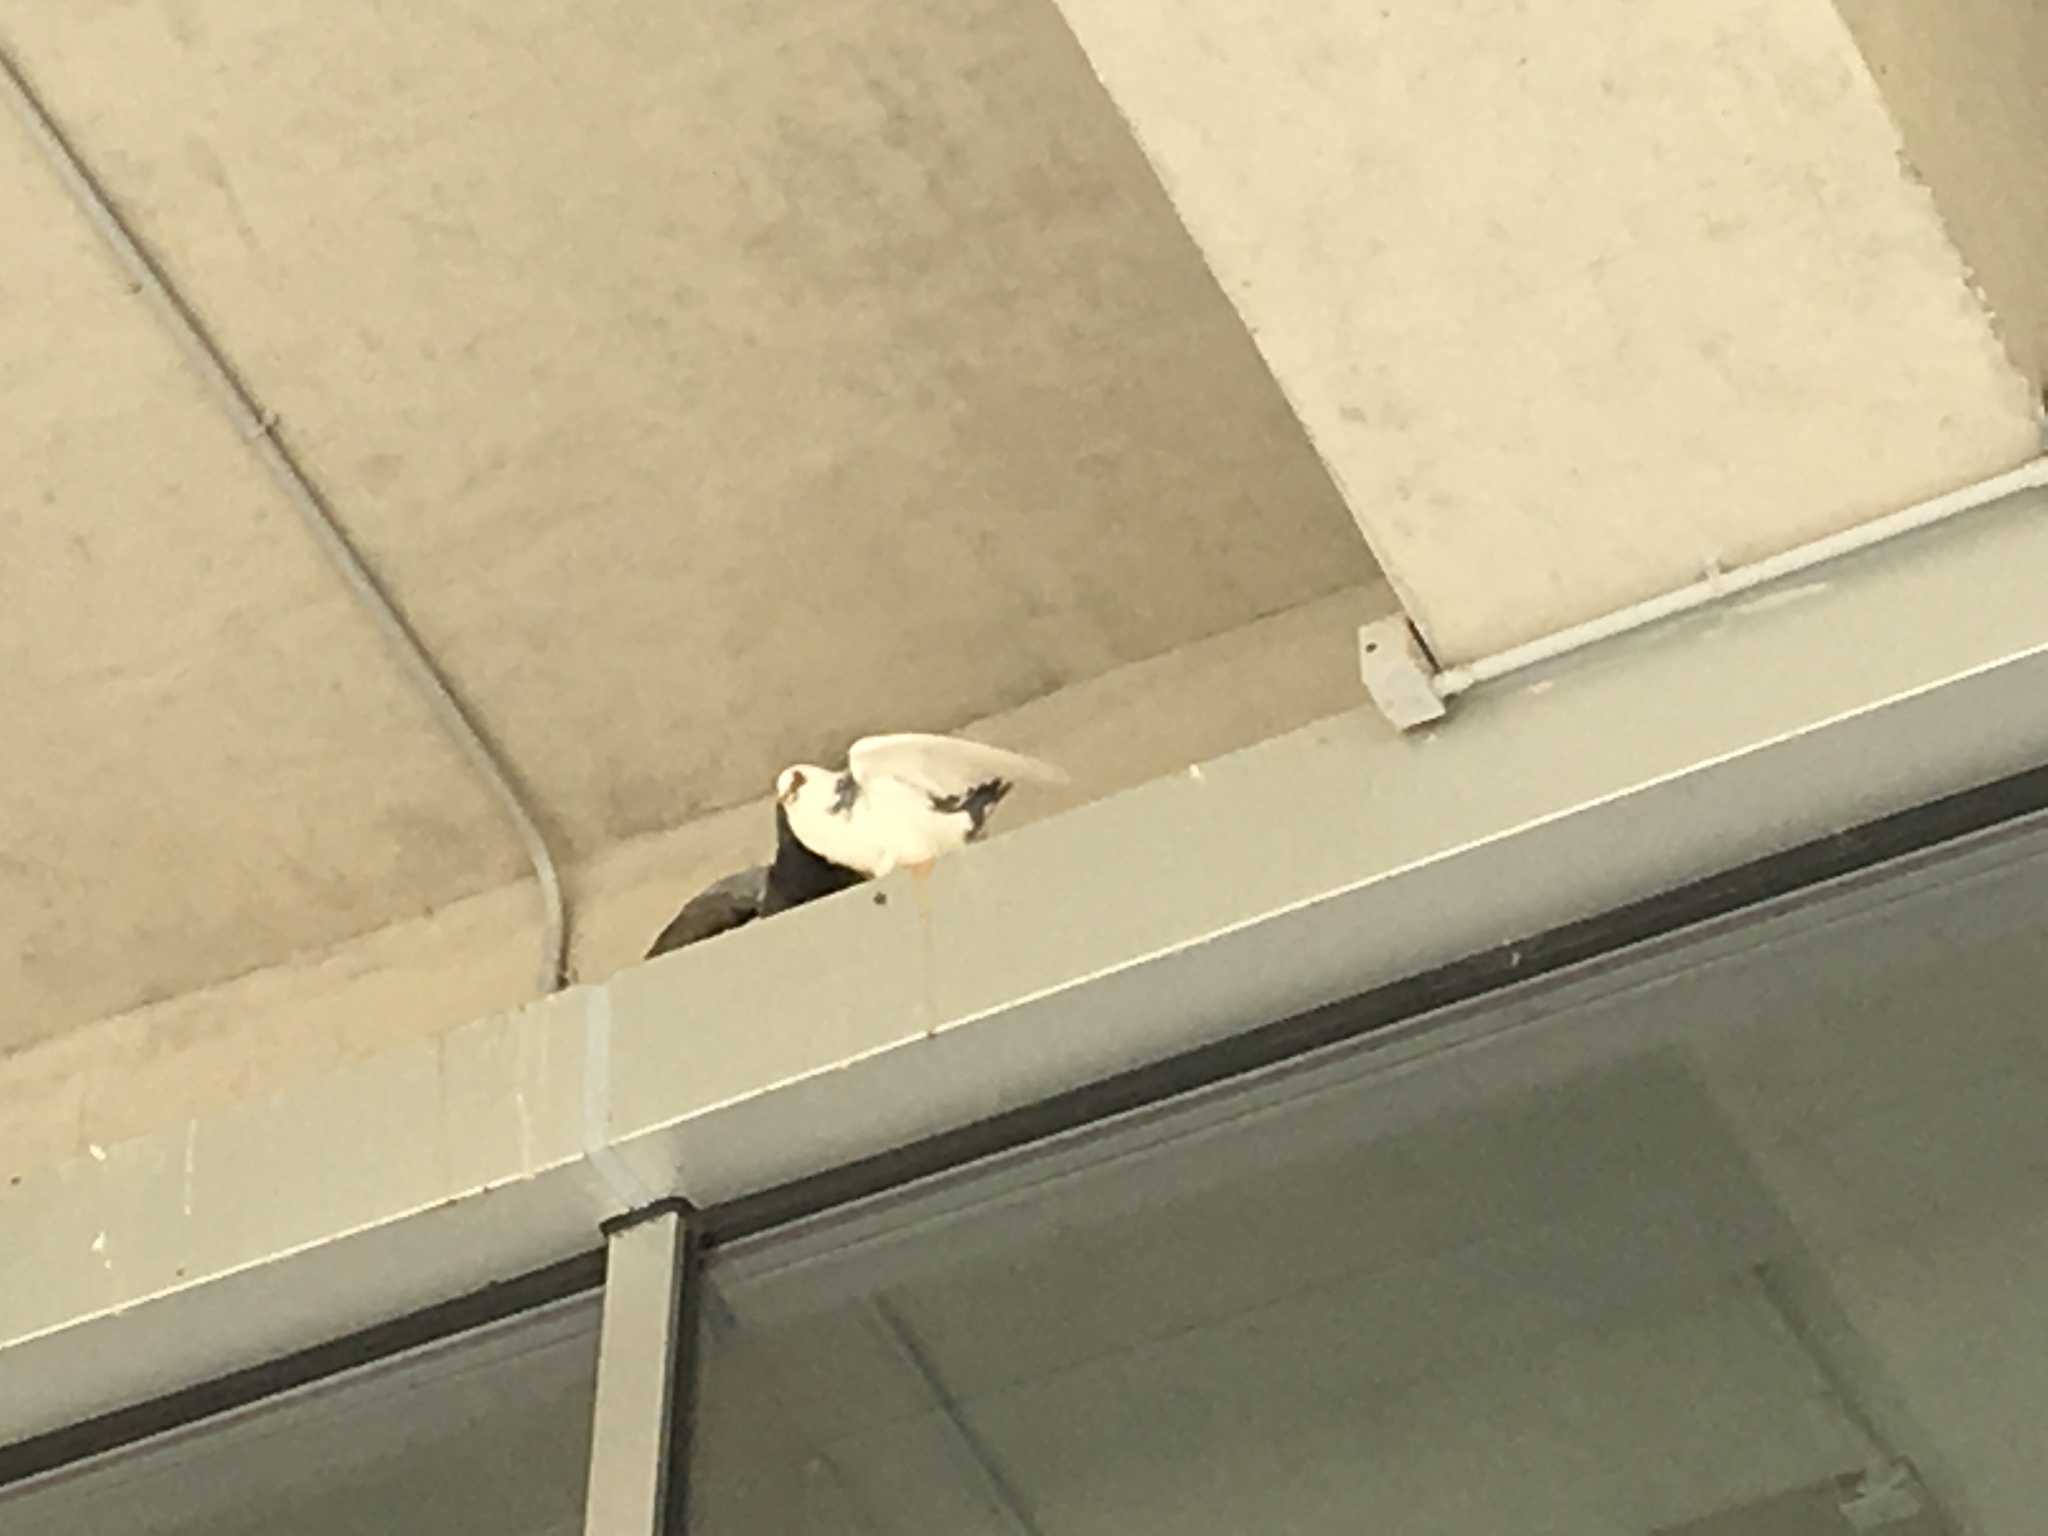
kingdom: Animalia
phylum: Chordata
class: Aves
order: Columbiformes
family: Columbidae
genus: Columba
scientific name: Columba livia
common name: Rock pigeon
